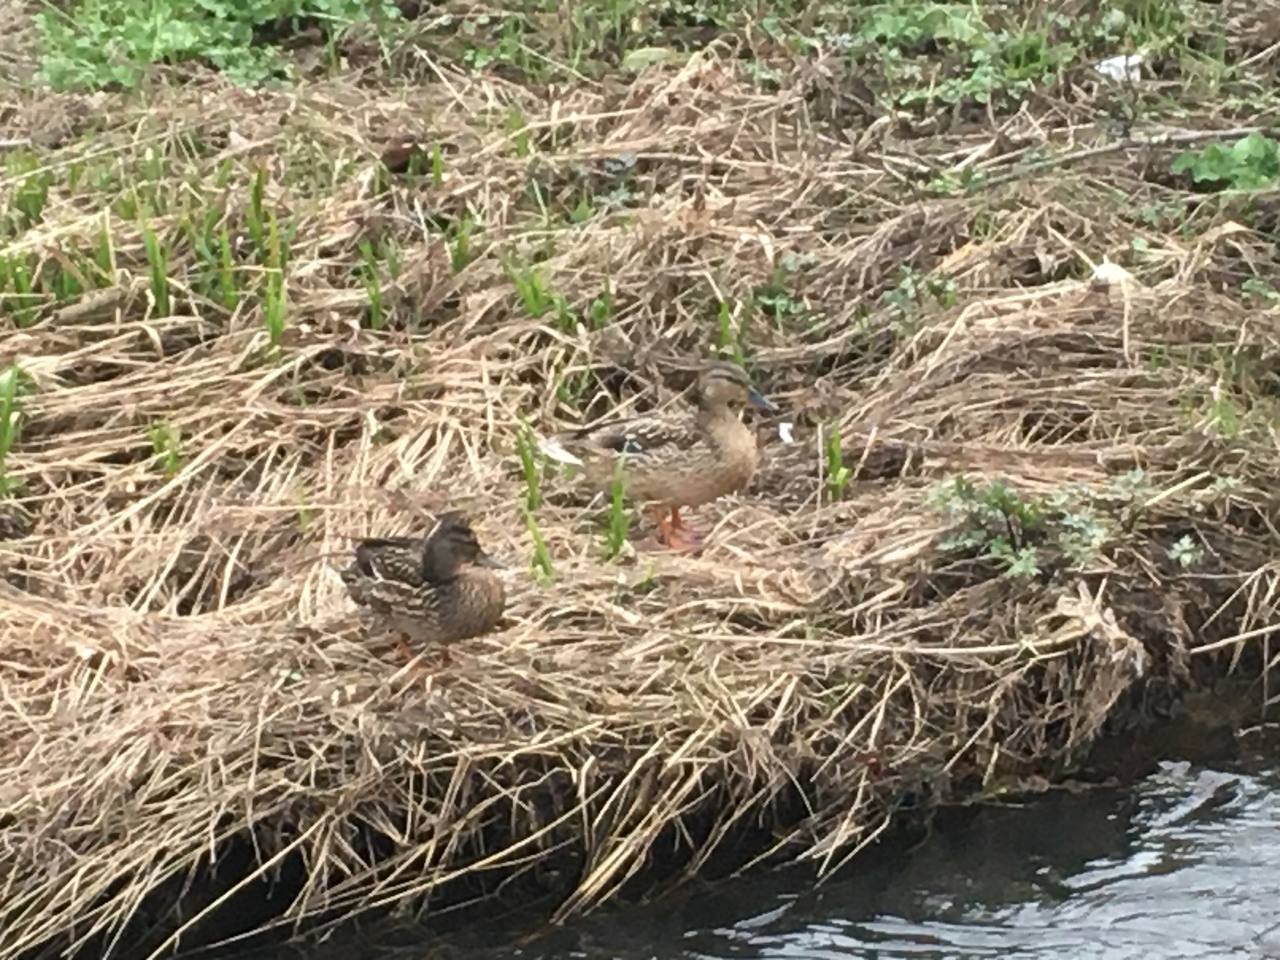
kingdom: Animalia
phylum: Chordata
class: Aves
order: Anseriformes
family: Anatidae
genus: Anas
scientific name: Anas platyrhynchos
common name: Mallard
